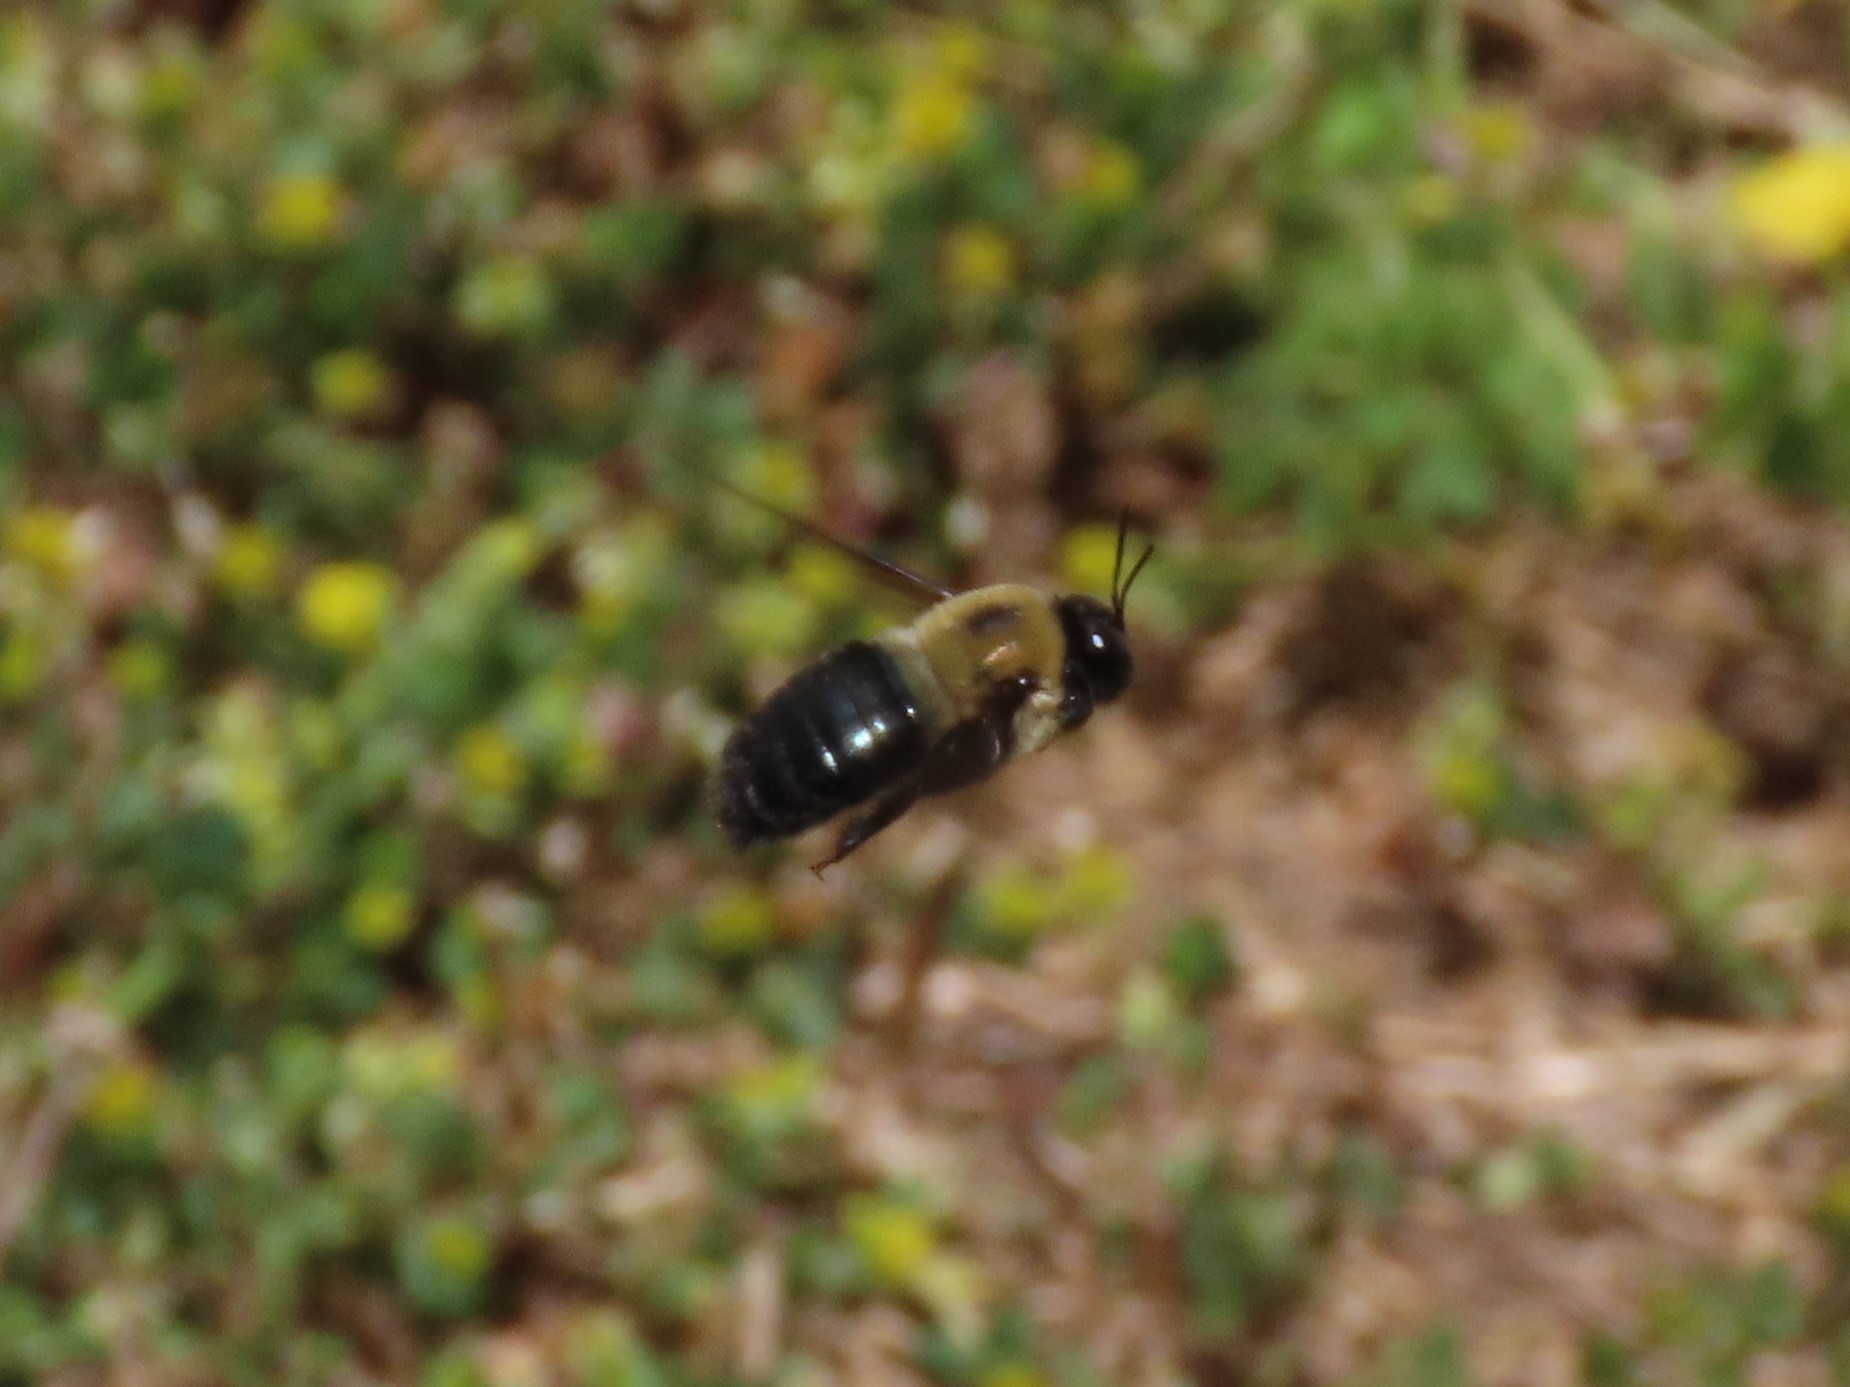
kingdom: Animalia
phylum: Arthropoda
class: Insecta
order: Hymenoptera
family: Apidae
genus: Xylocopa
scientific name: Xylocopa virginica
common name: Carpenter bee
